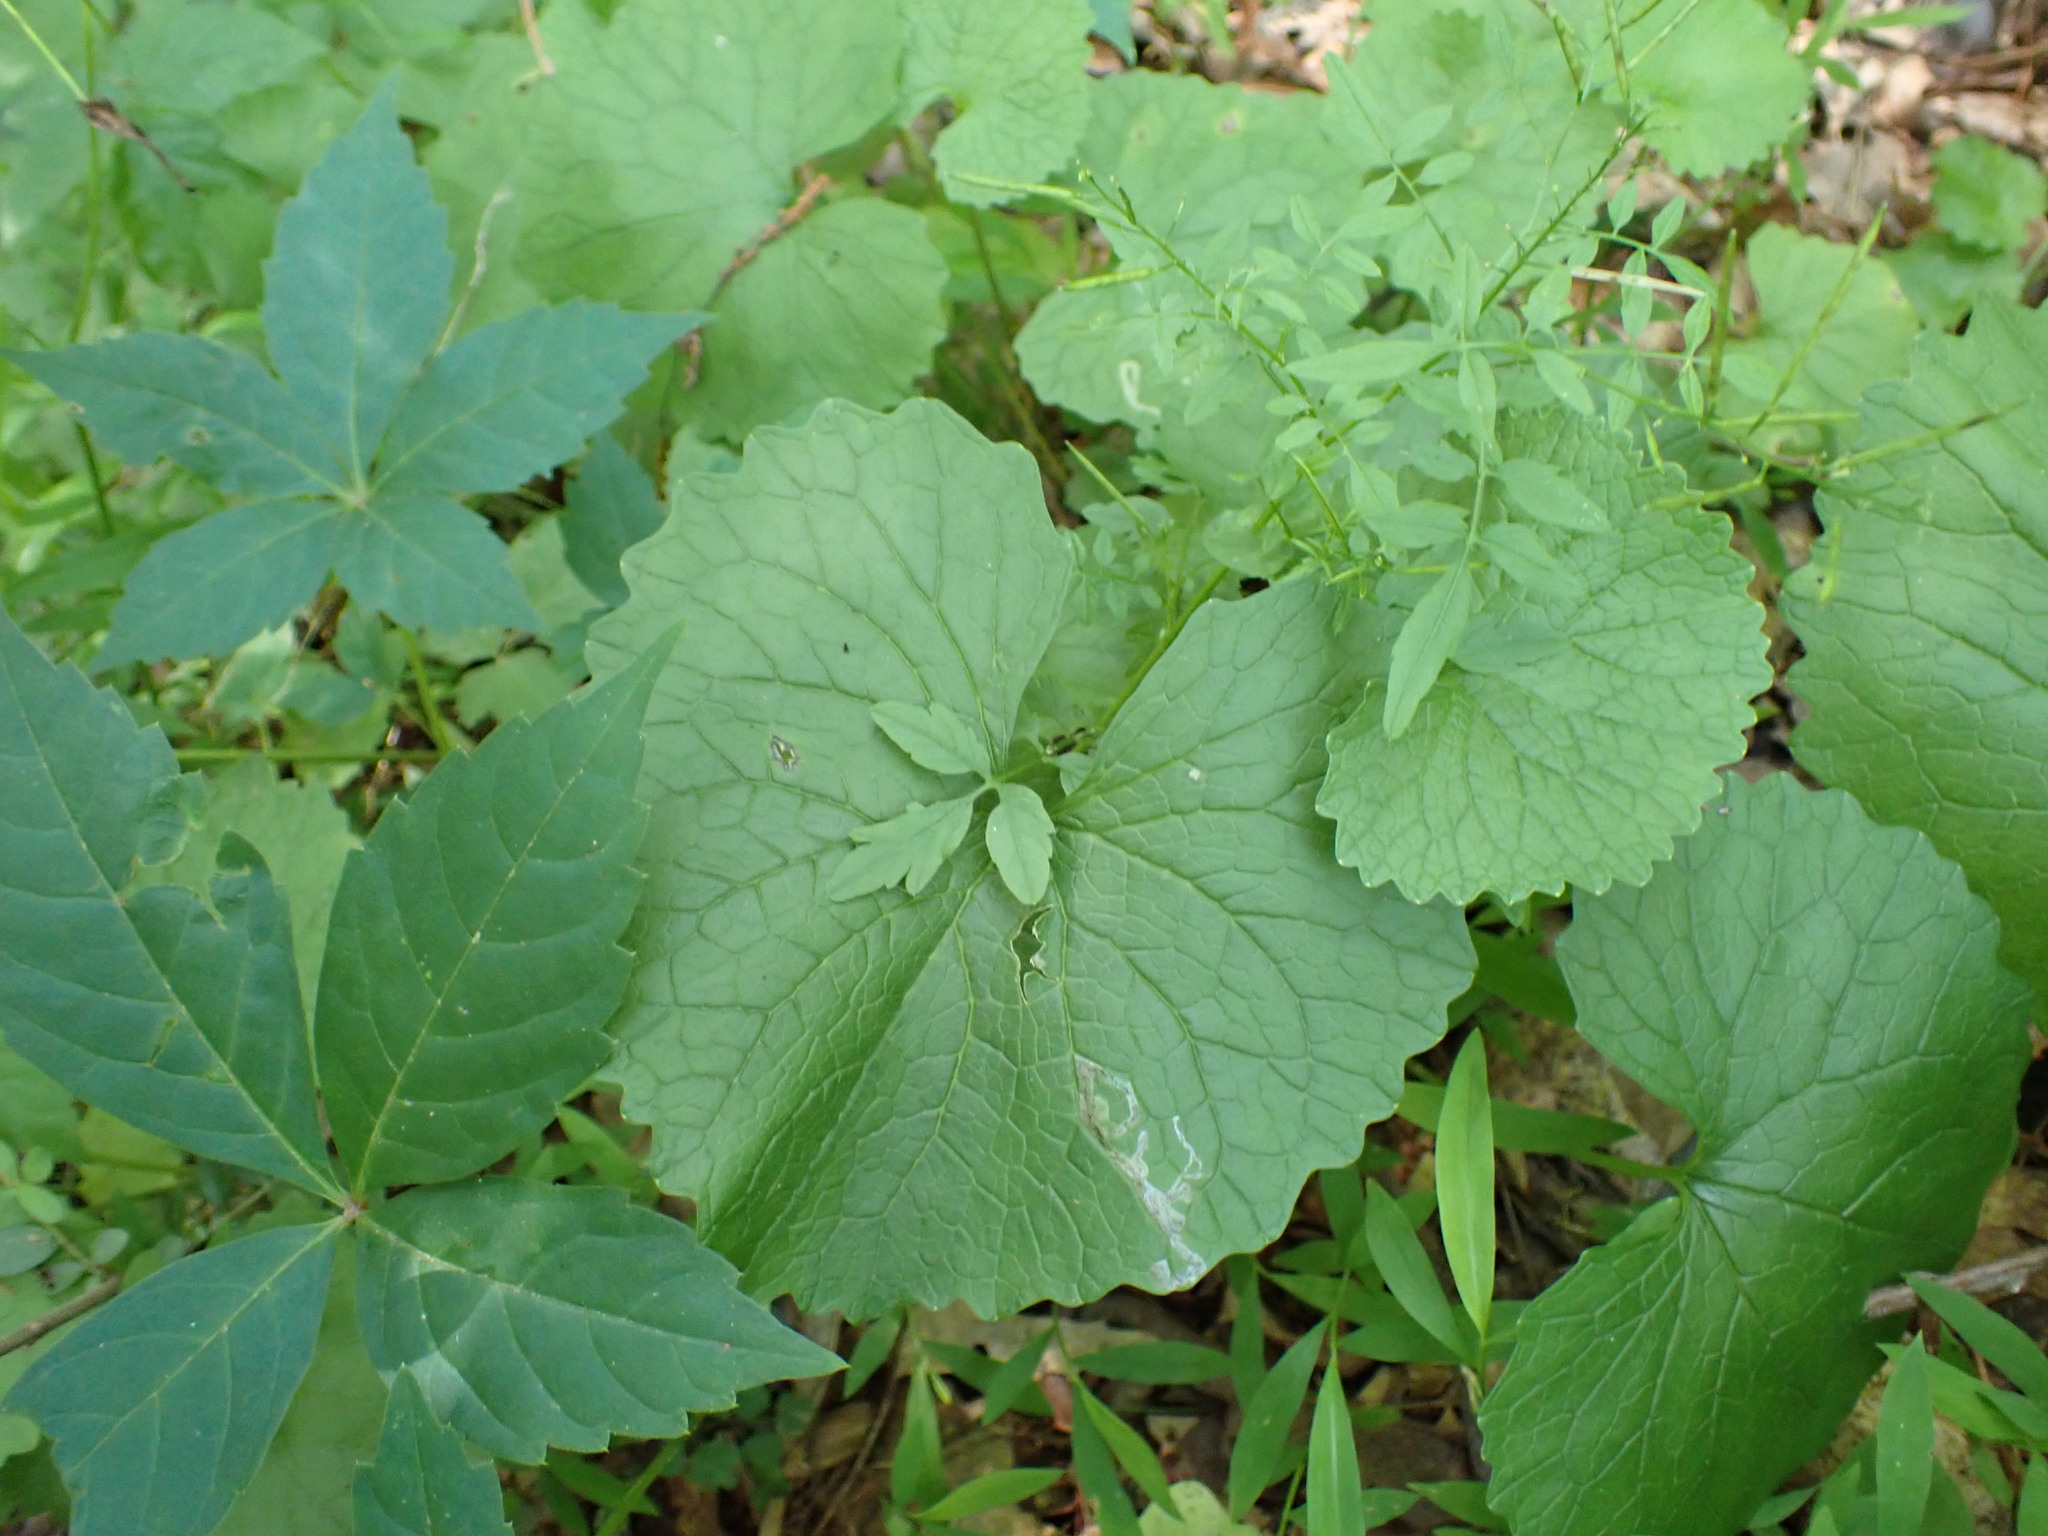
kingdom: Plantae
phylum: Tracheophyta
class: Magnoliopsida
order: Brassicales
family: Brassicaceae
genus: Alliaria
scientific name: Alliaria petiolata
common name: Garlic mustard
